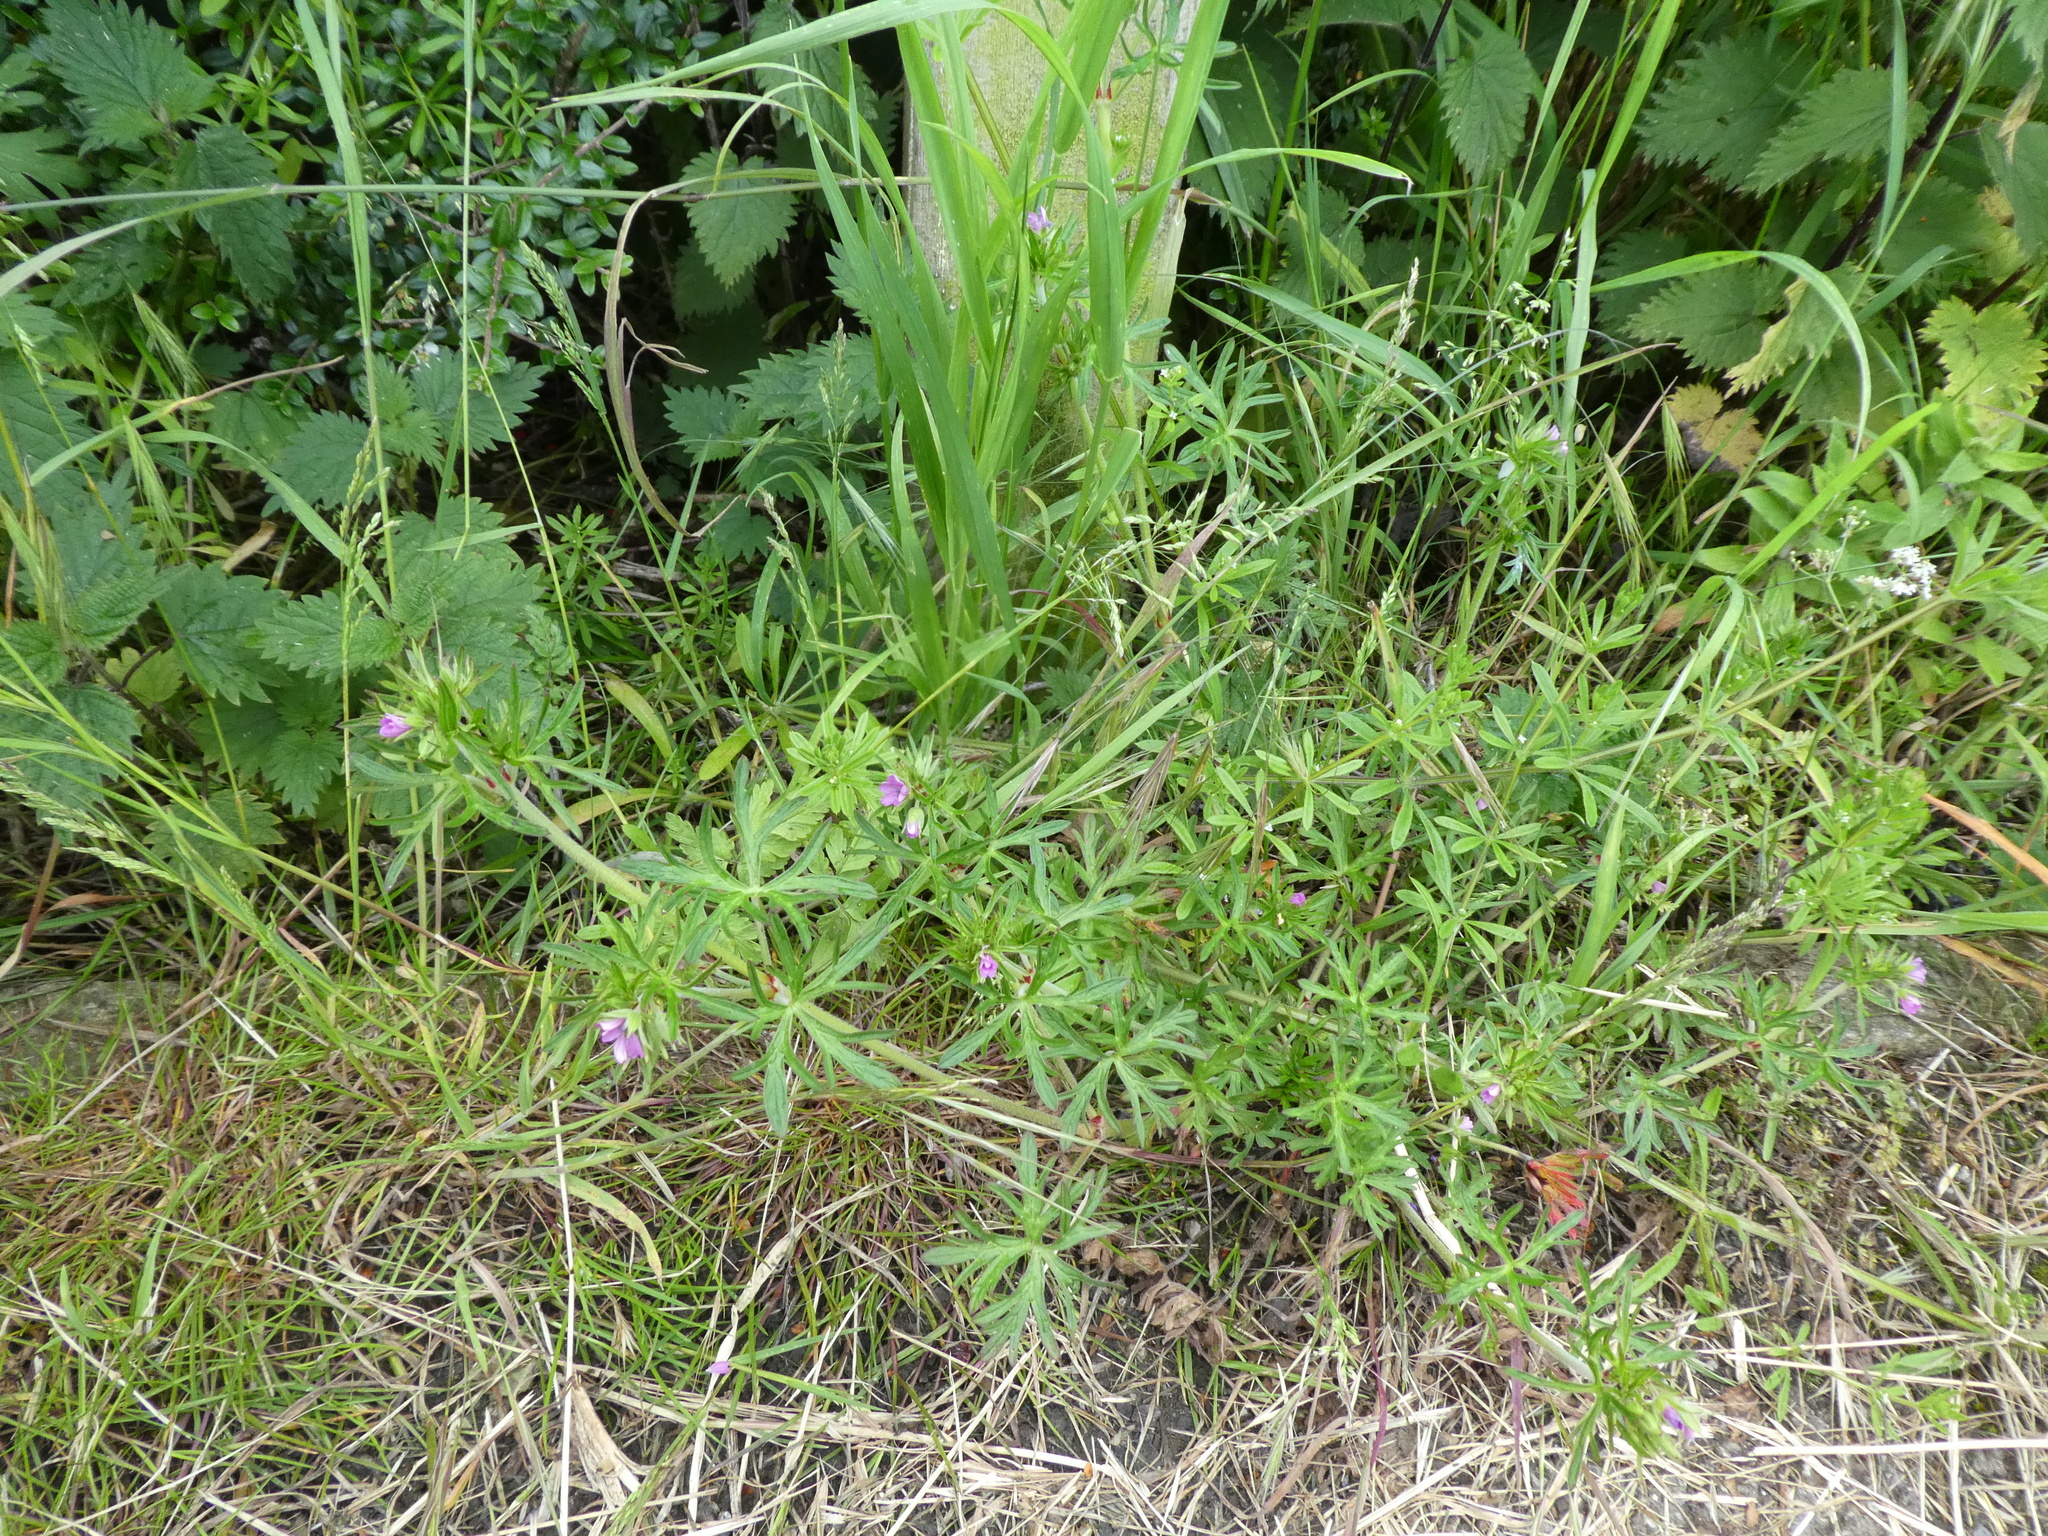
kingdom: Plantae
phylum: Tracheophyta
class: Magnoliopsida
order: Geraniales
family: Geraniaceae
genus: Geranium
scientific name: Geranium dissectum
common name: Cut-leaved crane's-bill
